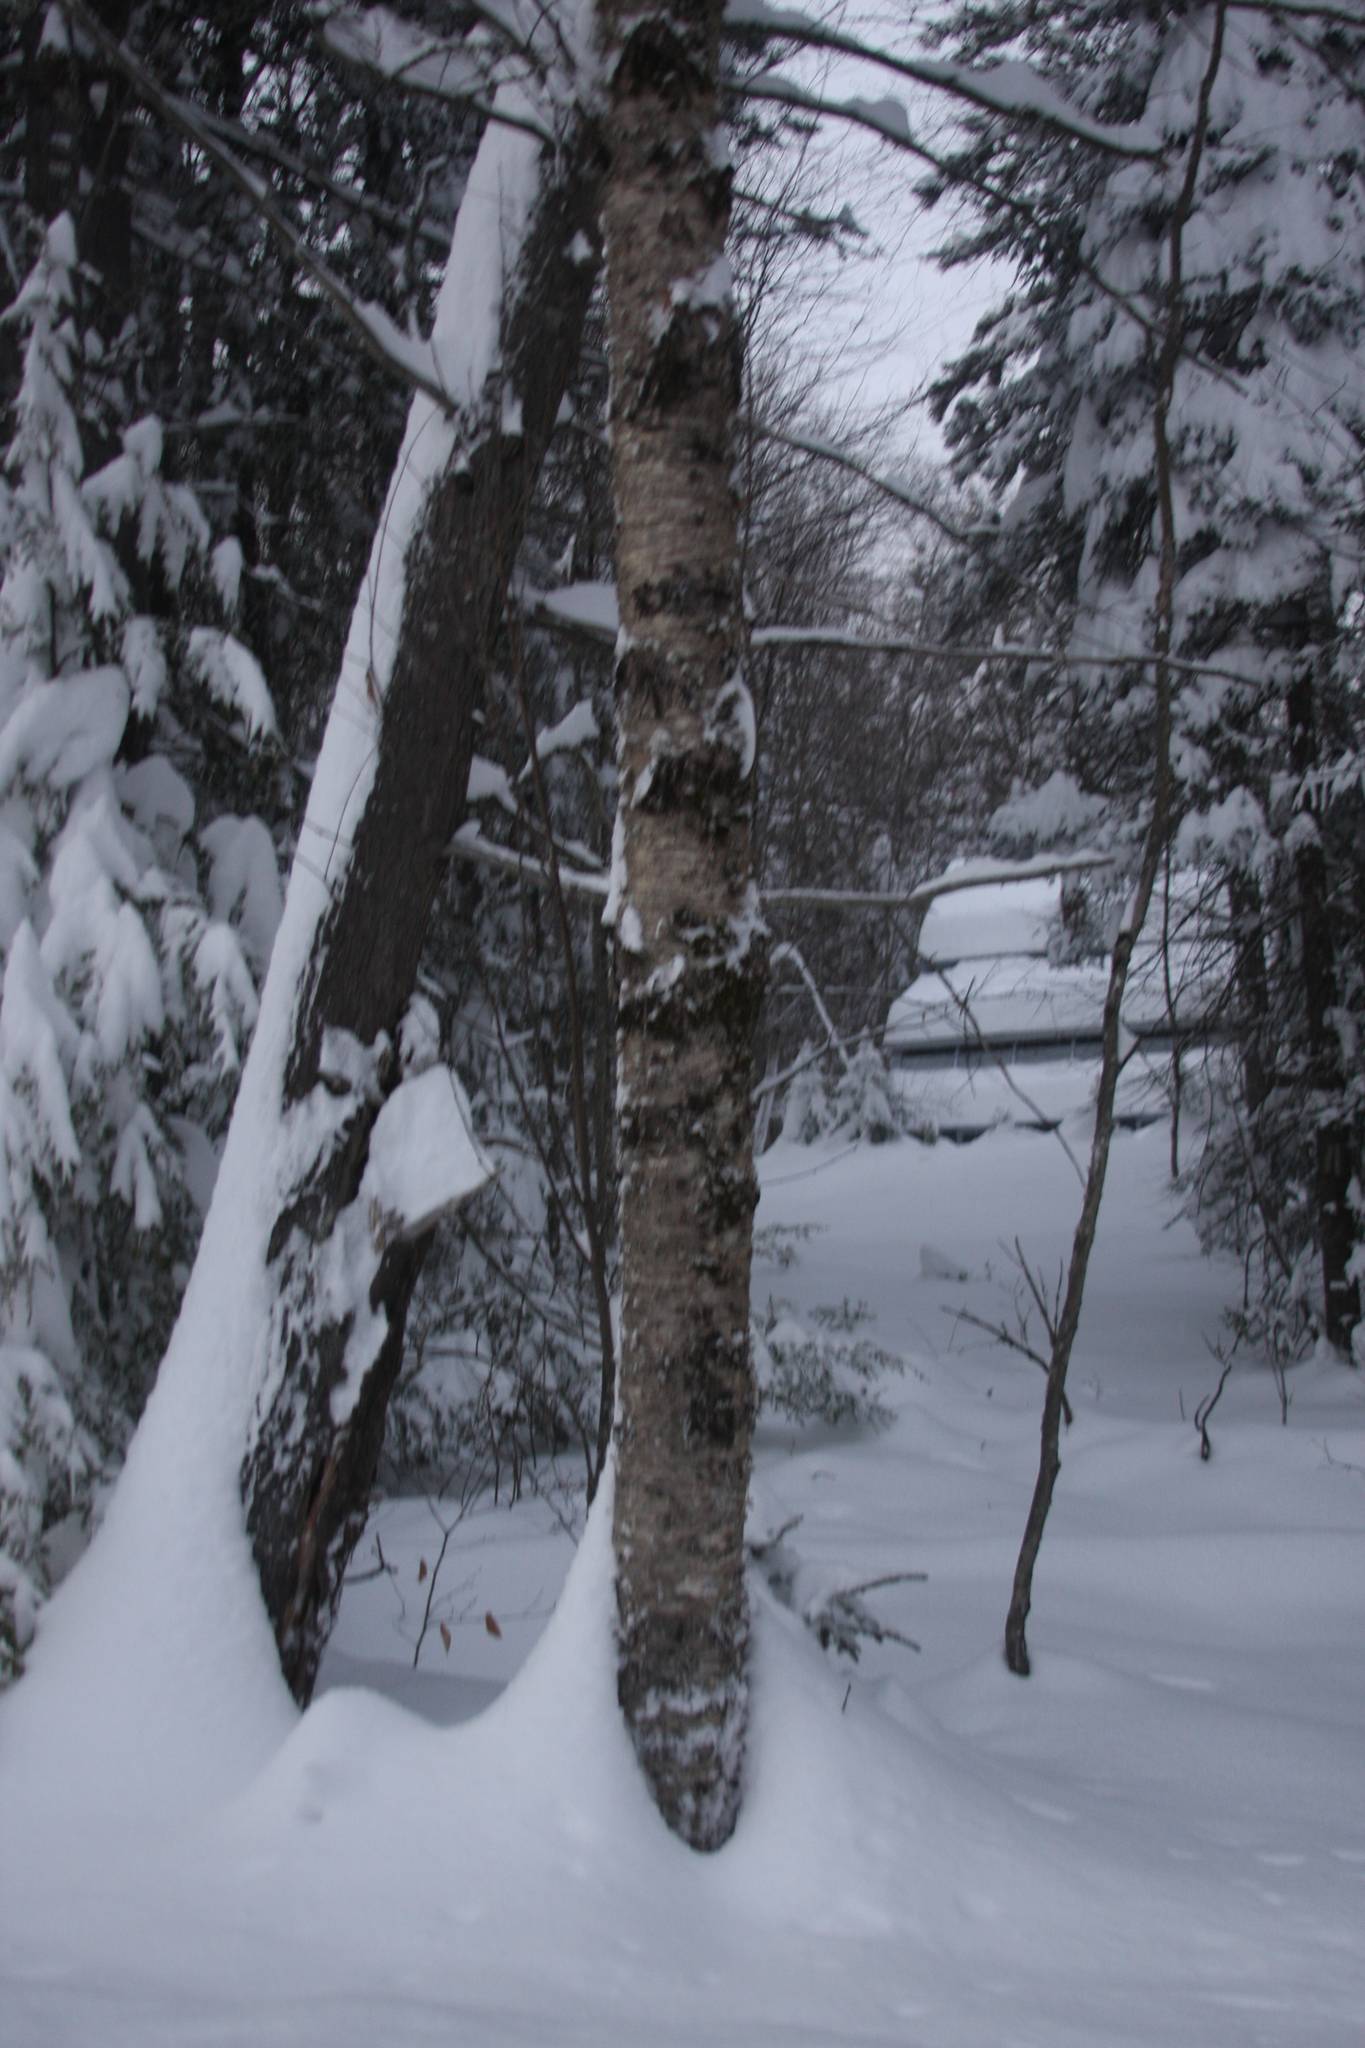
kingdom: Plantae
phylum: Tracheophyta
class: Magnoliopsida
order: Fagales
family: Betulaceae
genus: Betula
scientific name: Betula alleghaniensis
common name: Yellow birch
